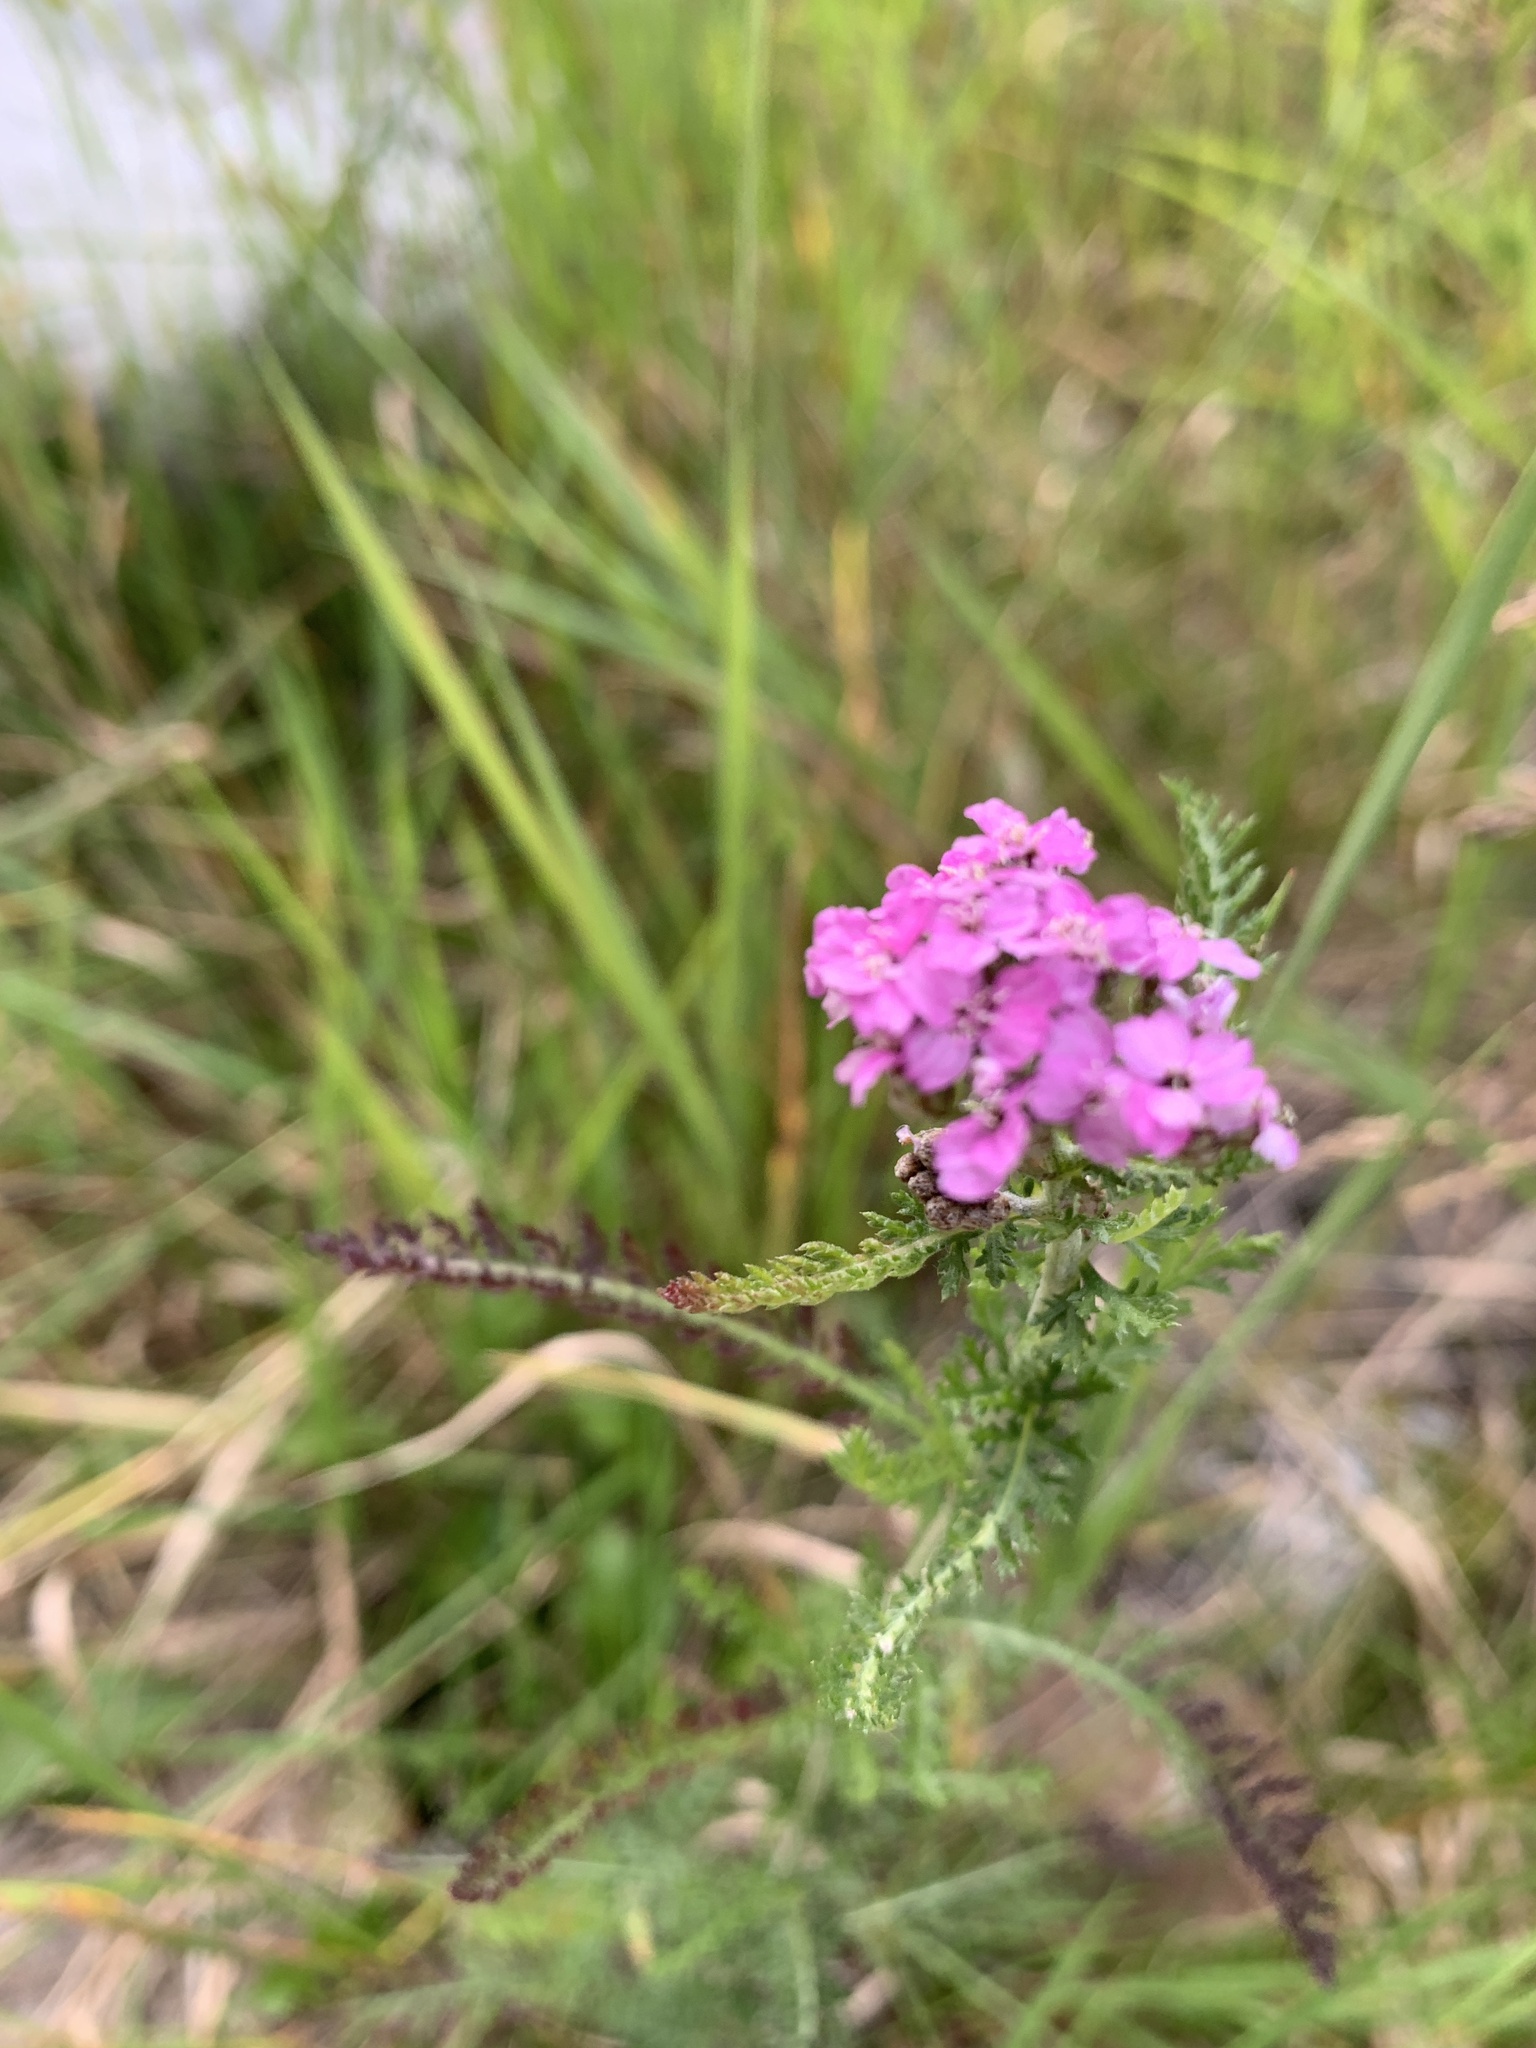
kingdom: Plantae
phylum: Tracheophyta
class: Magnoliopsida
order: Asterales
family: Asteraceae
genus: Achillea
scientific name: Achillea millefolium
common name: Yarrow
